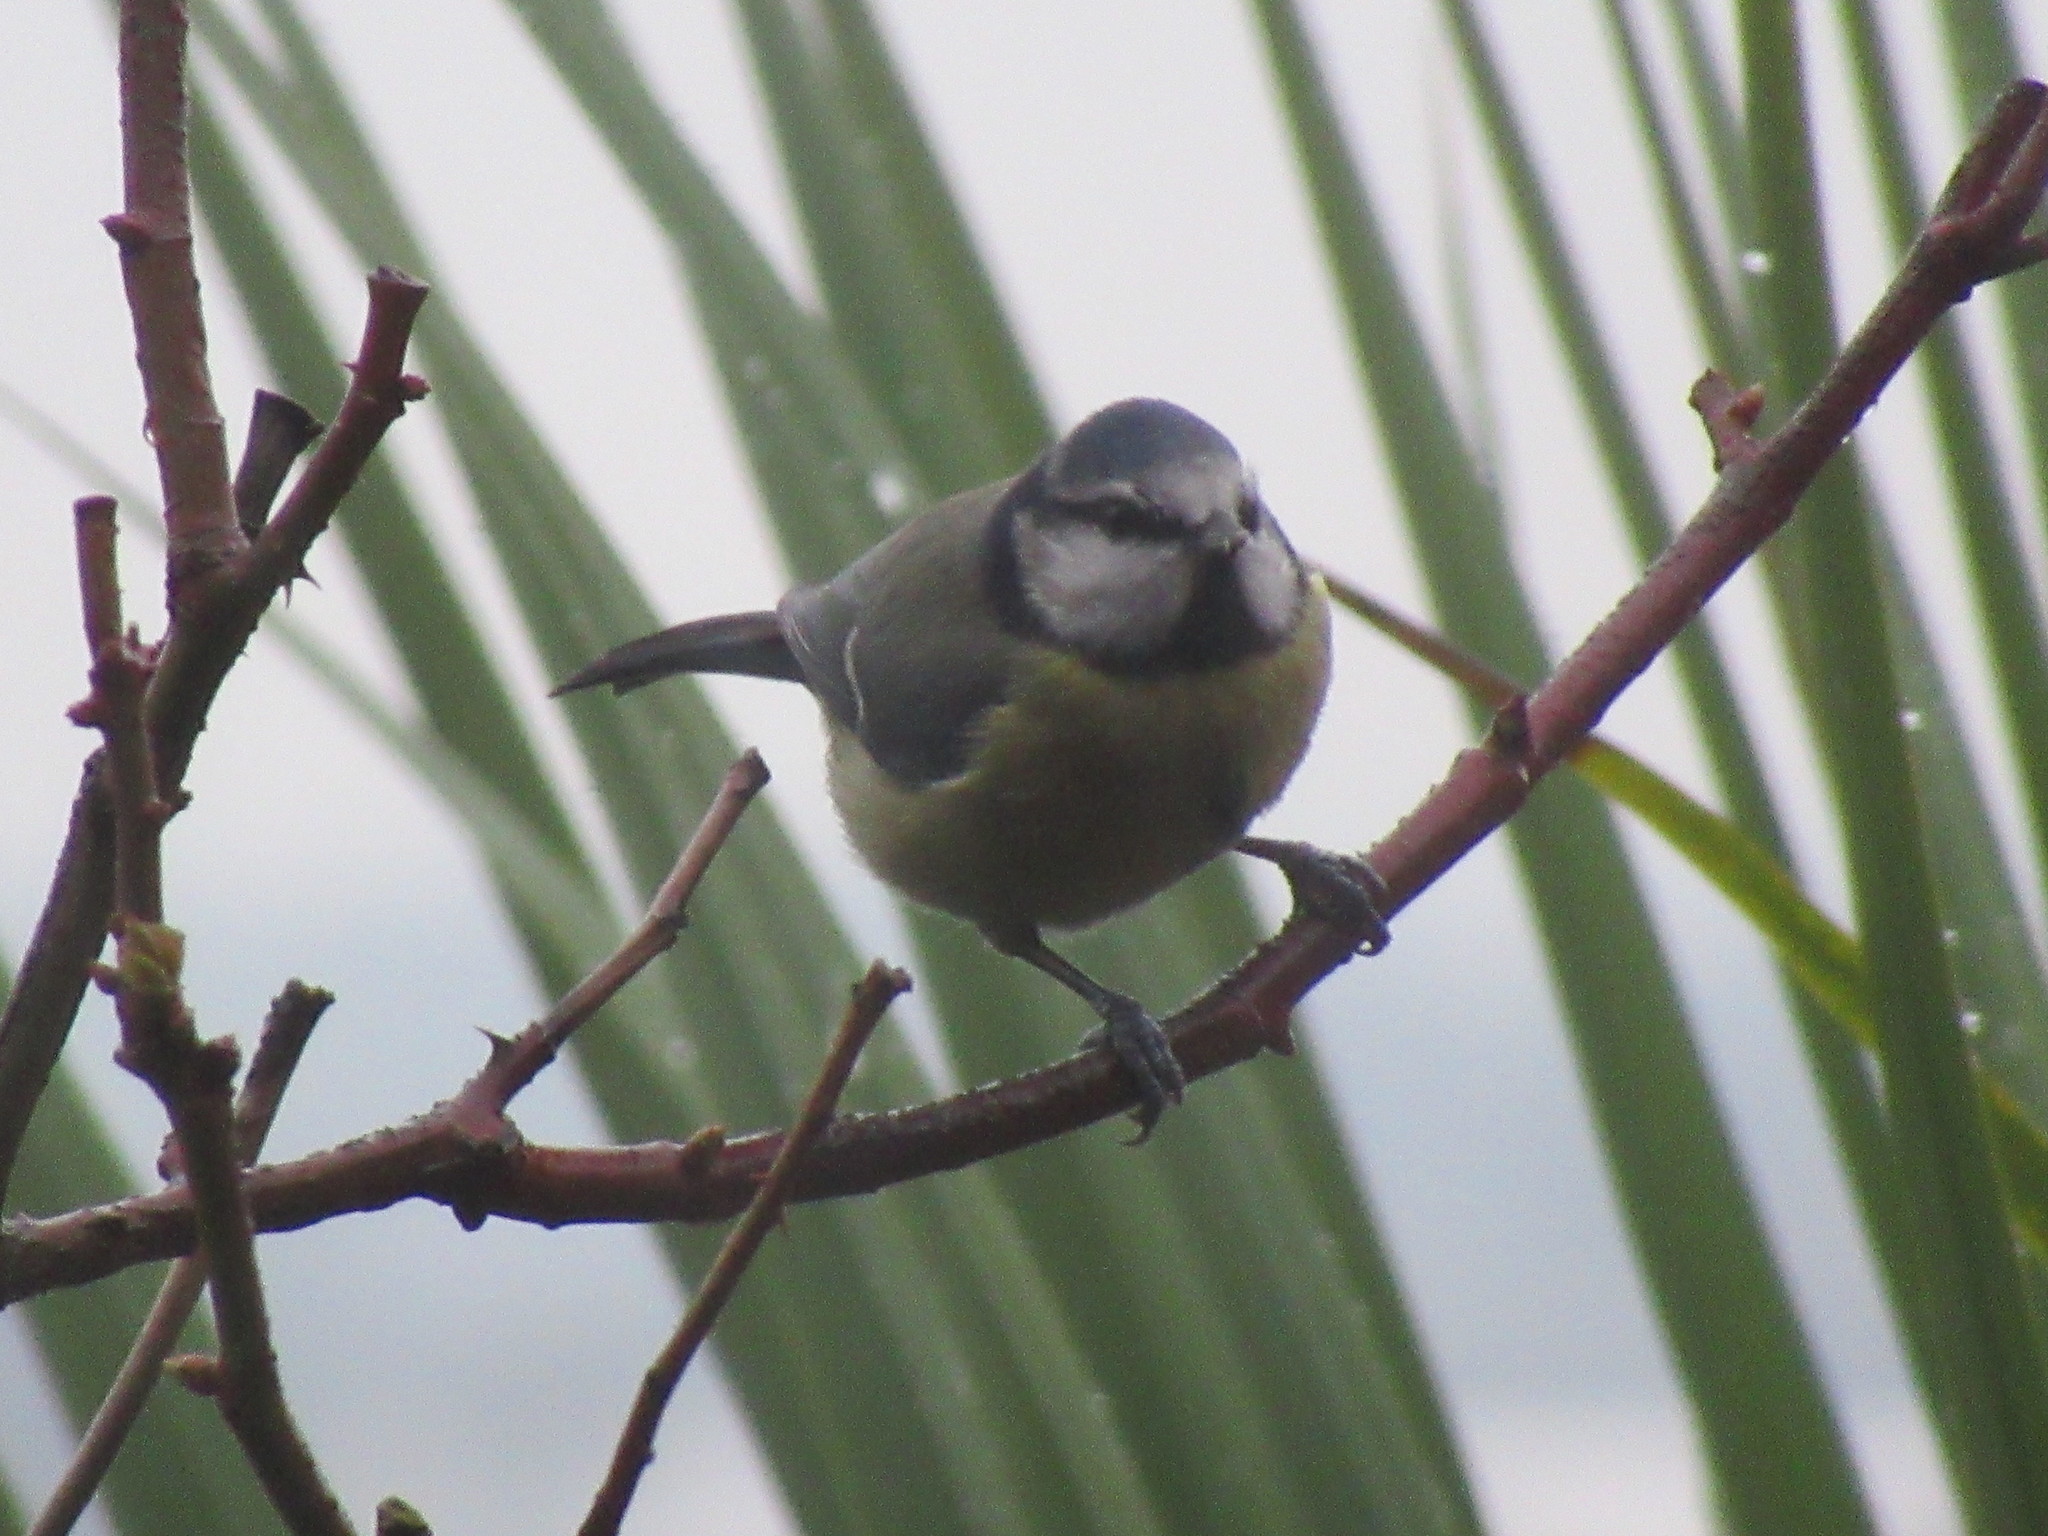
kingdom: Animalia
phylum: Chordata
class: Aves
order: Passeriformes
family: Paridae
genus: Cyanistes
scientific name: Cyanistes caeruleus
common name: Eurasian blue tit
